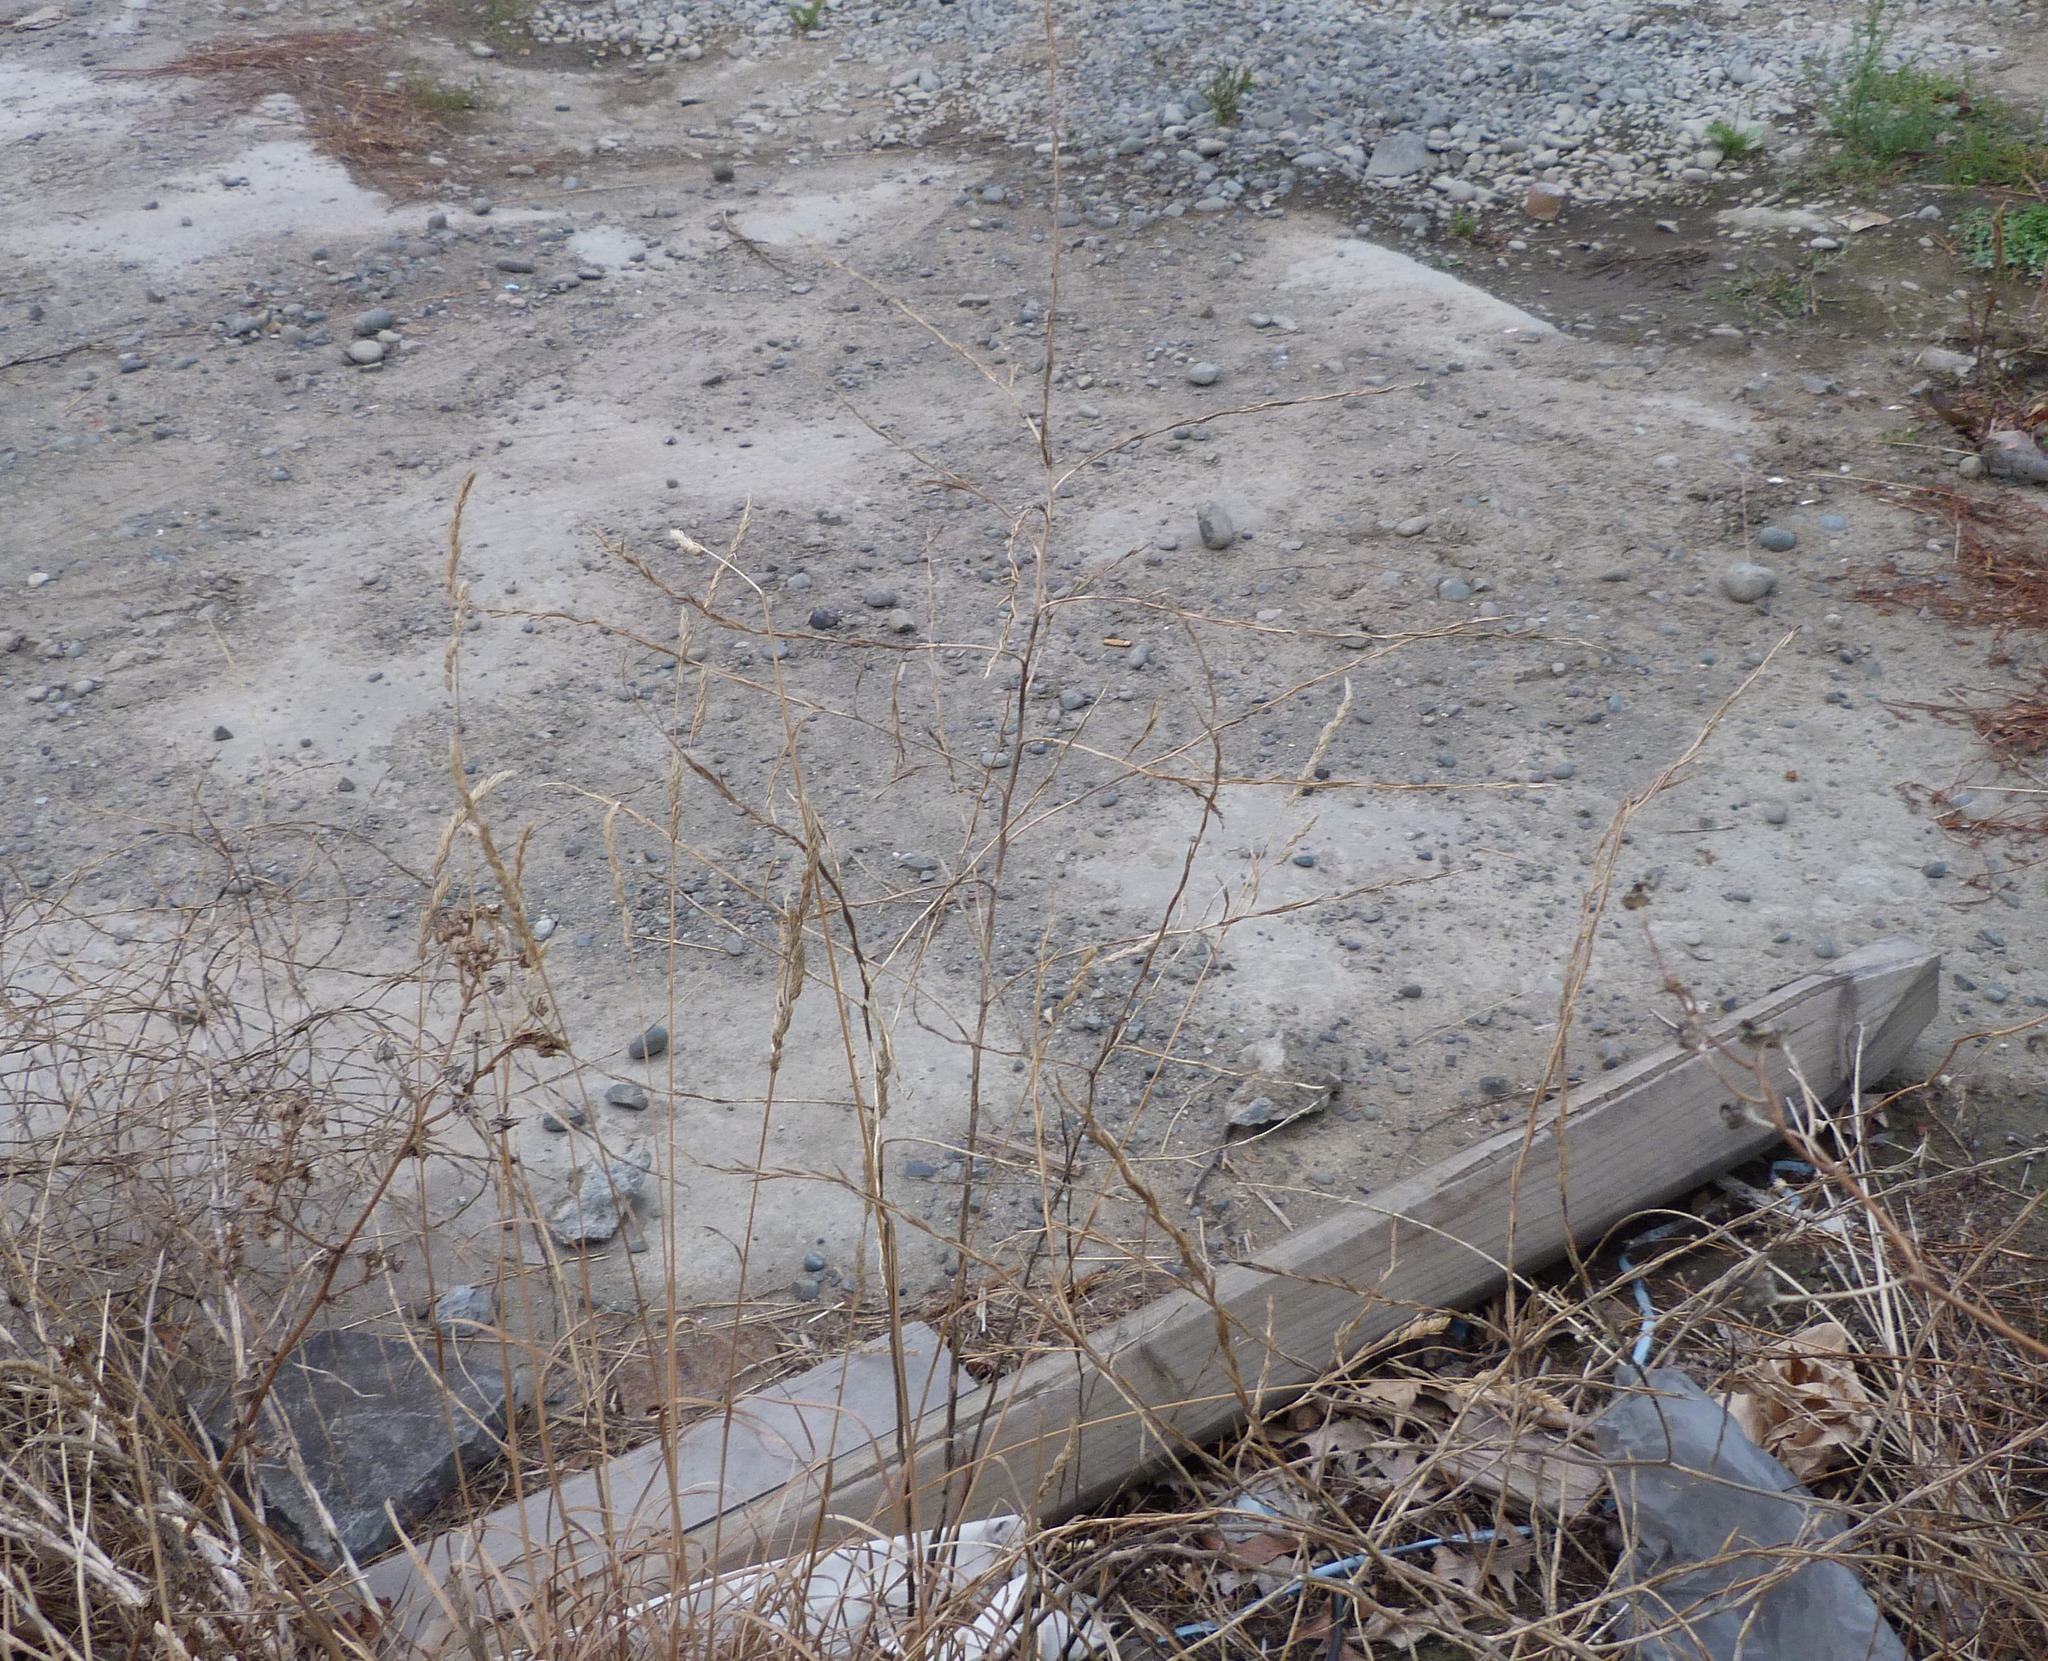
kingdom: Plantae
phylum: Tracheophyta
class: Magnoliopsida
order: Brassicales
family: Brassicaceae
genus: Sisymbrium
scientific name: Sisymbrium officinale
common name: Hedge mustard
